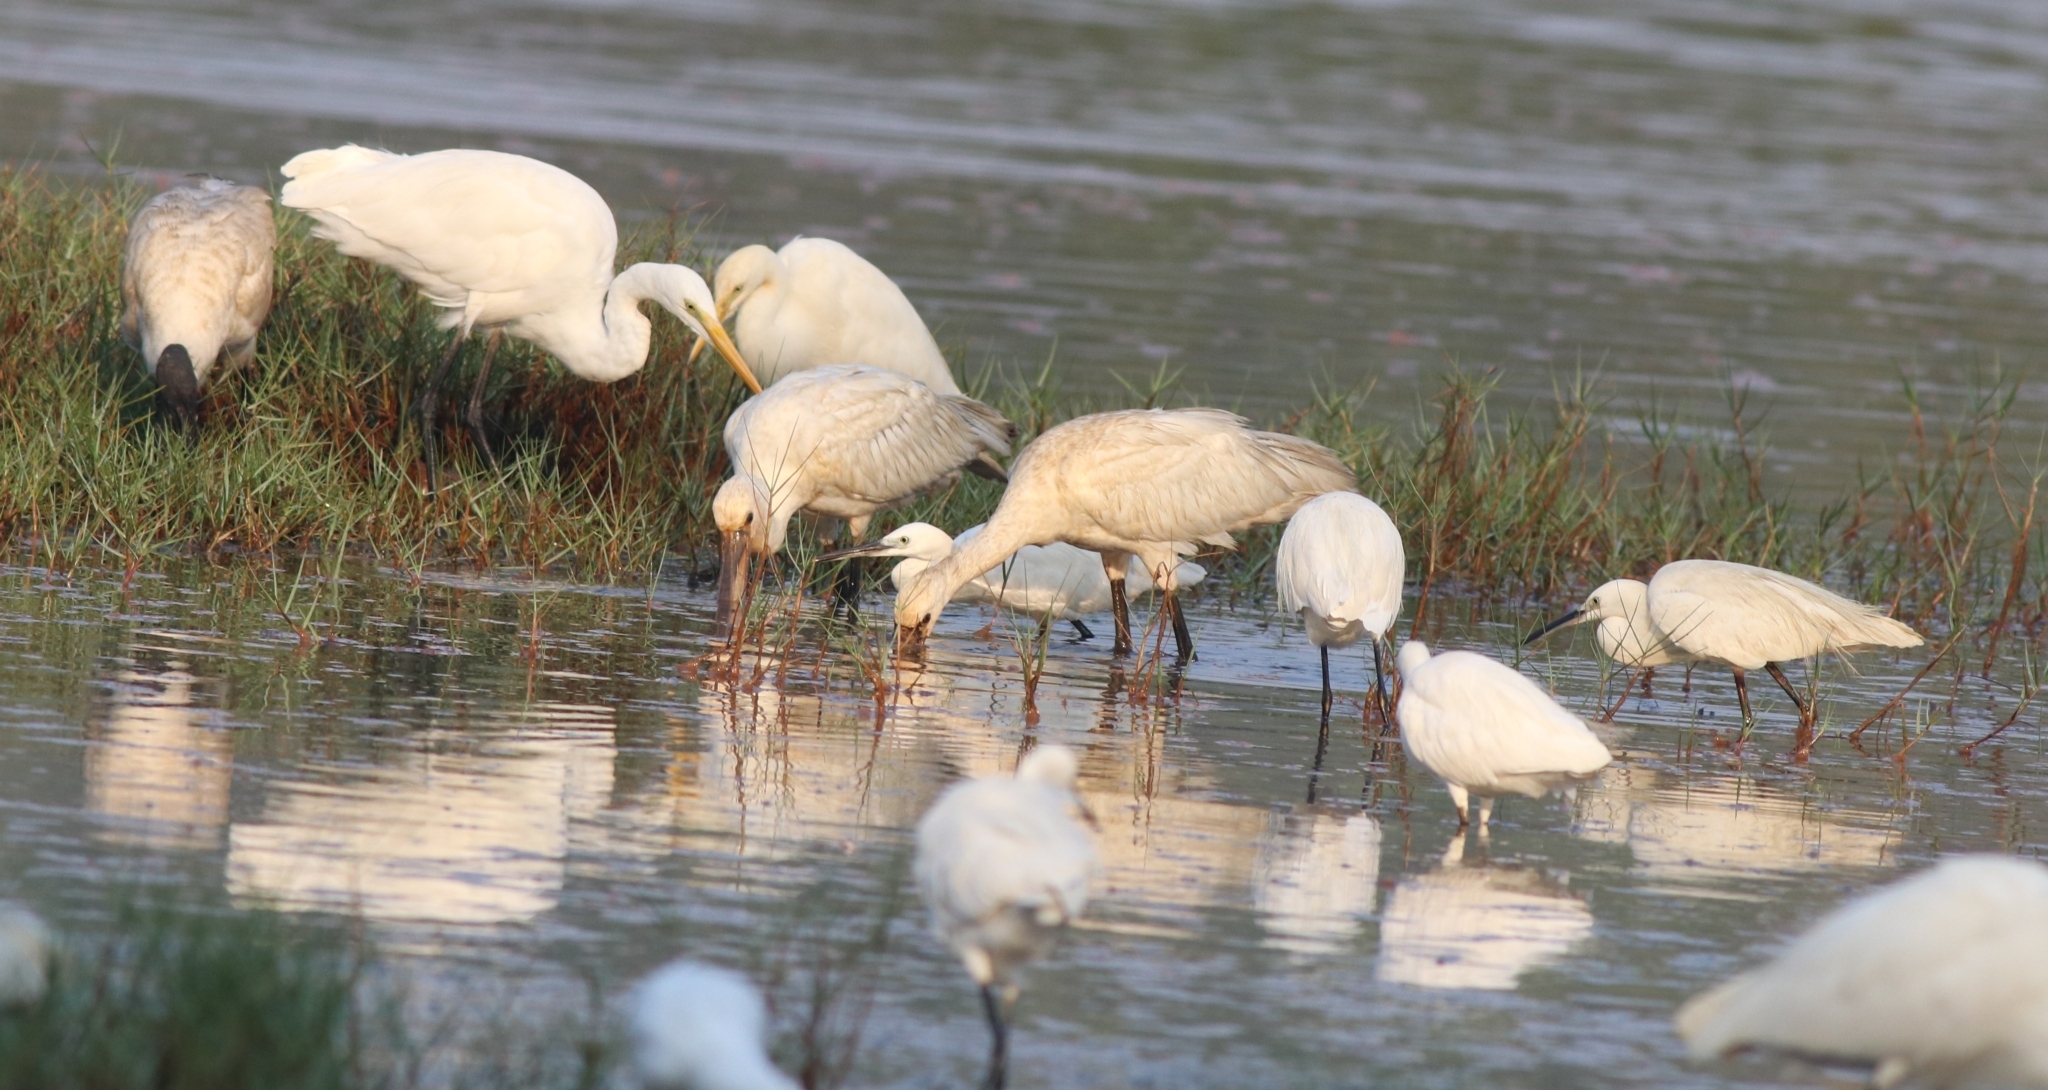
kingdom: Animalia
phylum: Chordata
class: Aves
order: Pelecaniformes
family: Threskiornithidae
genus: Platalea
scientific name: Platalea leucorodia
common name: Eurasian spoonbill
